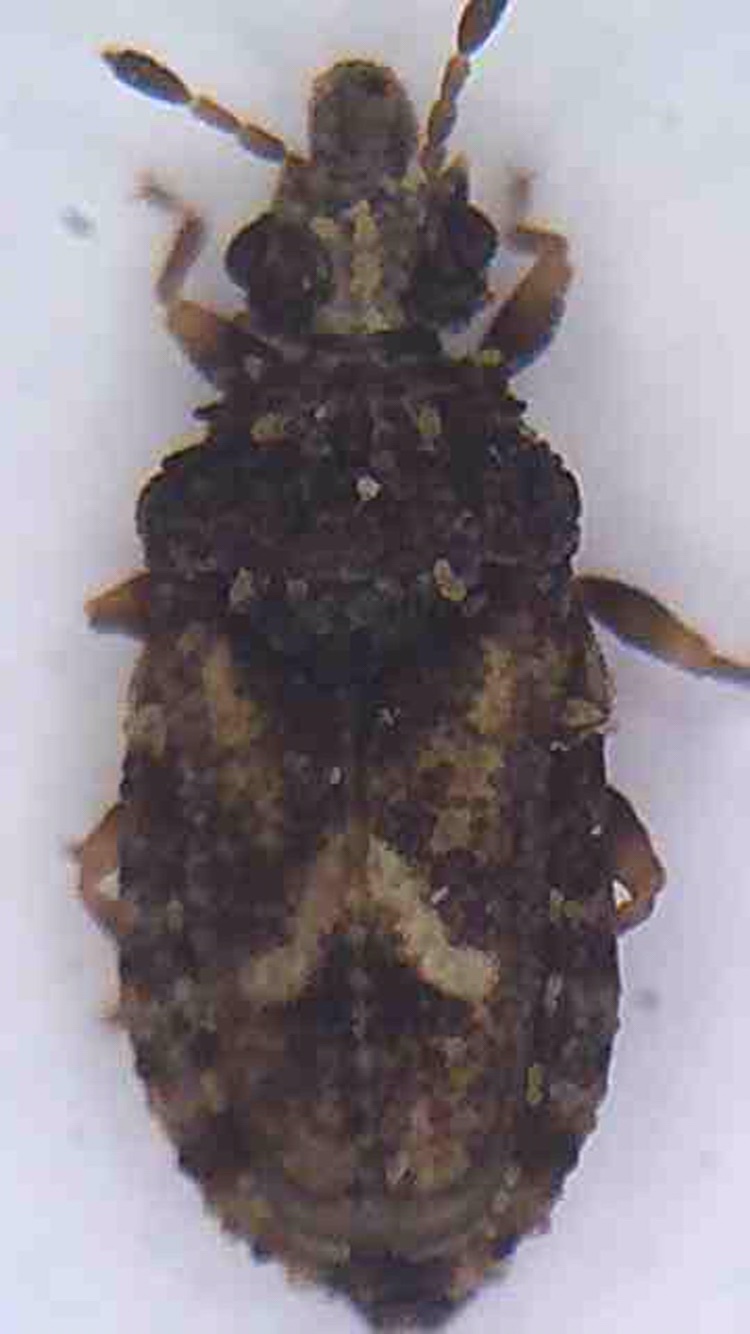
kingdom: Animalia
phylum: Arthropoda
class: Insecta
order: Hemiptera
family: Aradidae
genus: Calisius
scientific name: Calisius zealandicus
